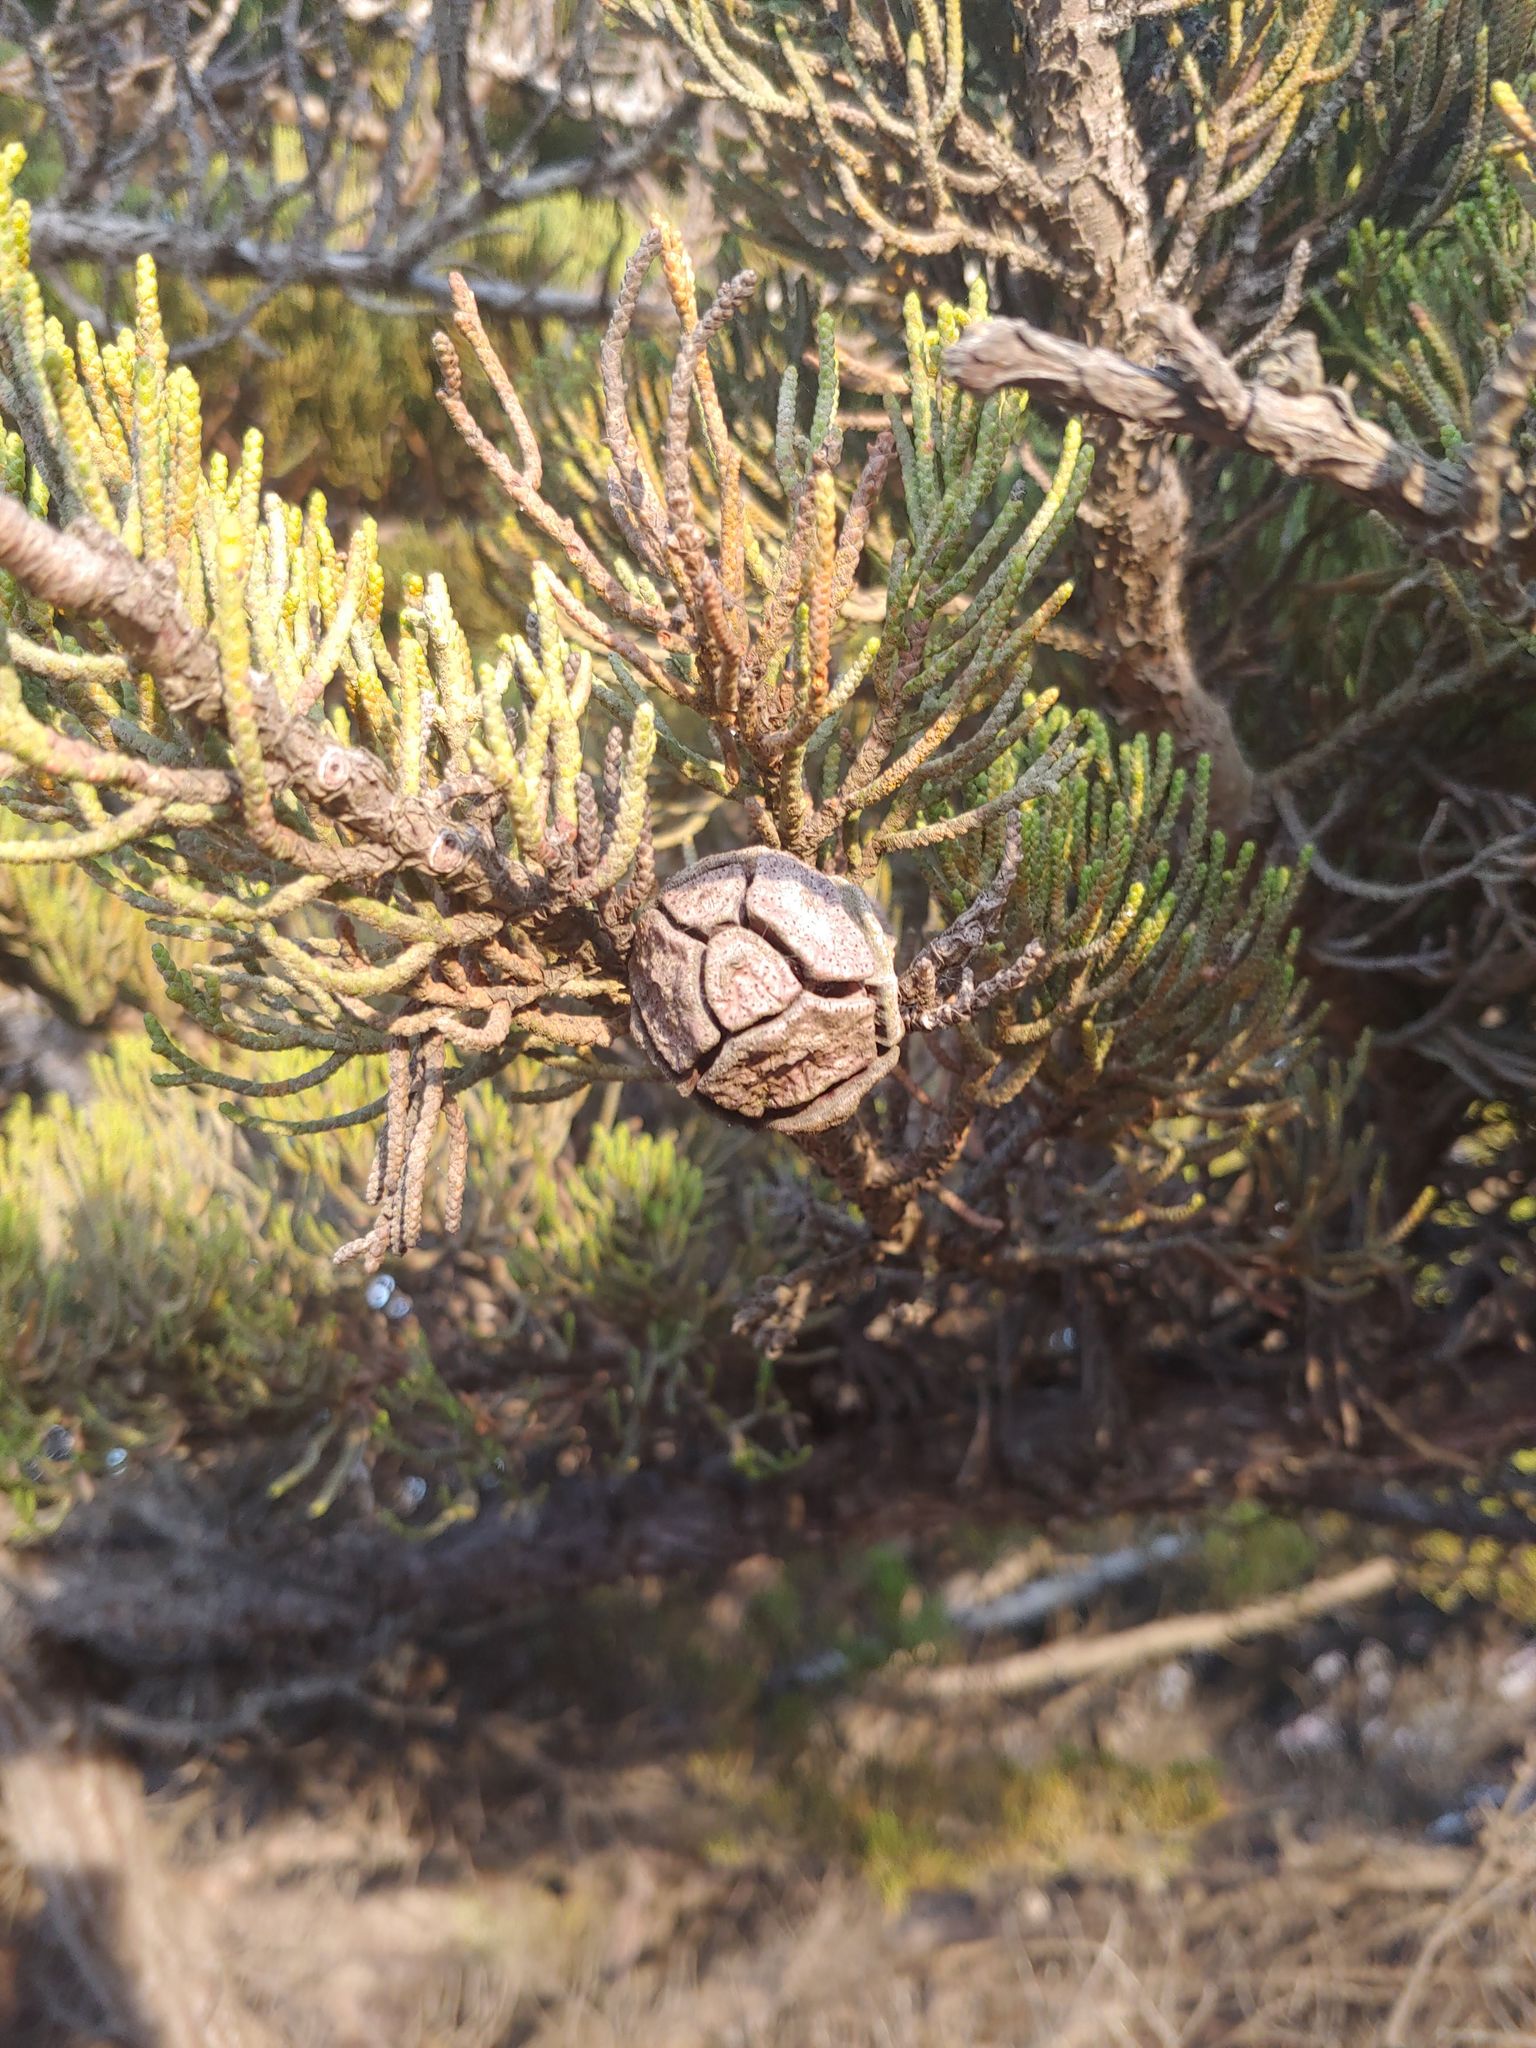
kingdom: Plantae
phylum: Tracheophyta
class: Pinopsida
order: Pinales
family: Cupressaceae
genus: Cupressus
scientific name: Cupressus macrocarpa
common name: Monterey cypress
